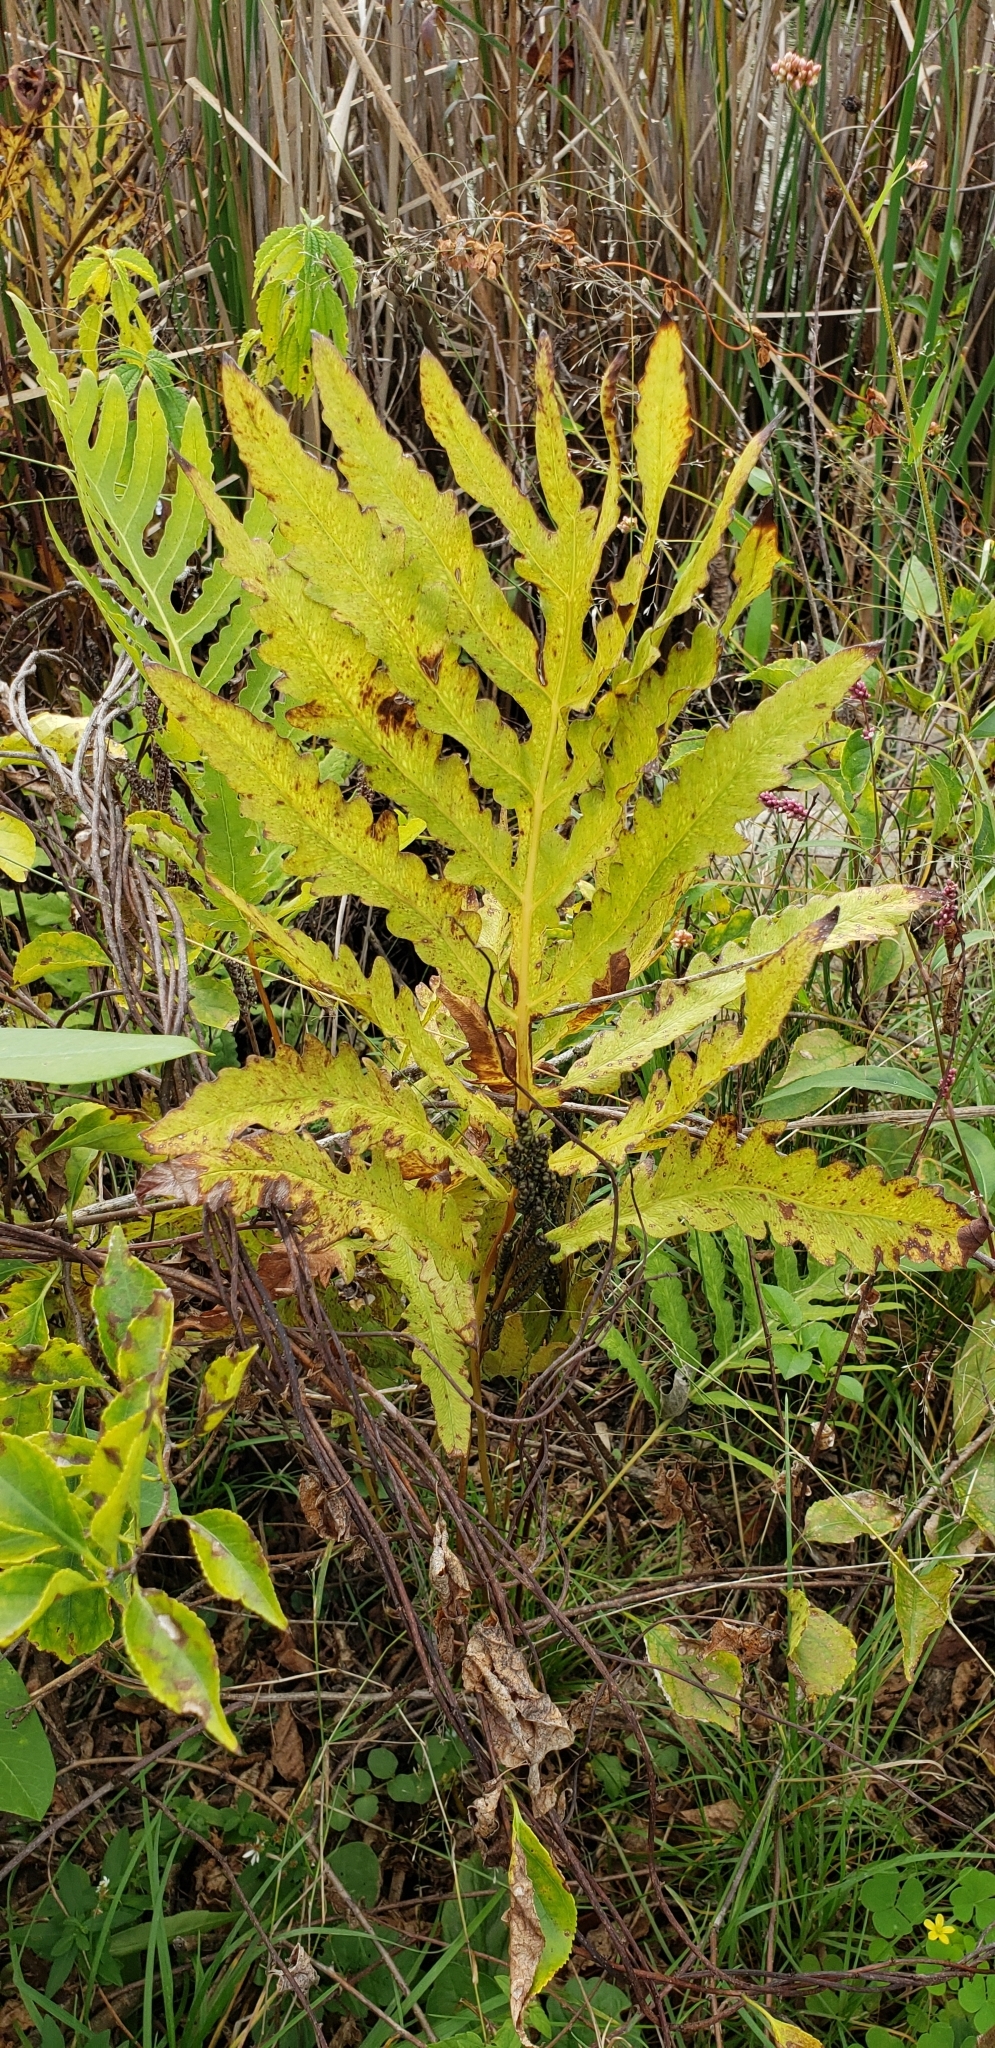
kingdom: Plantae
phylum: Tracheophyta
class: Polypodiopsida
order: Polypodiales
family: Onocleaceae
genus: Onoclea
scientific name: Onoclea sensibilis
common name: Sensitive fern
